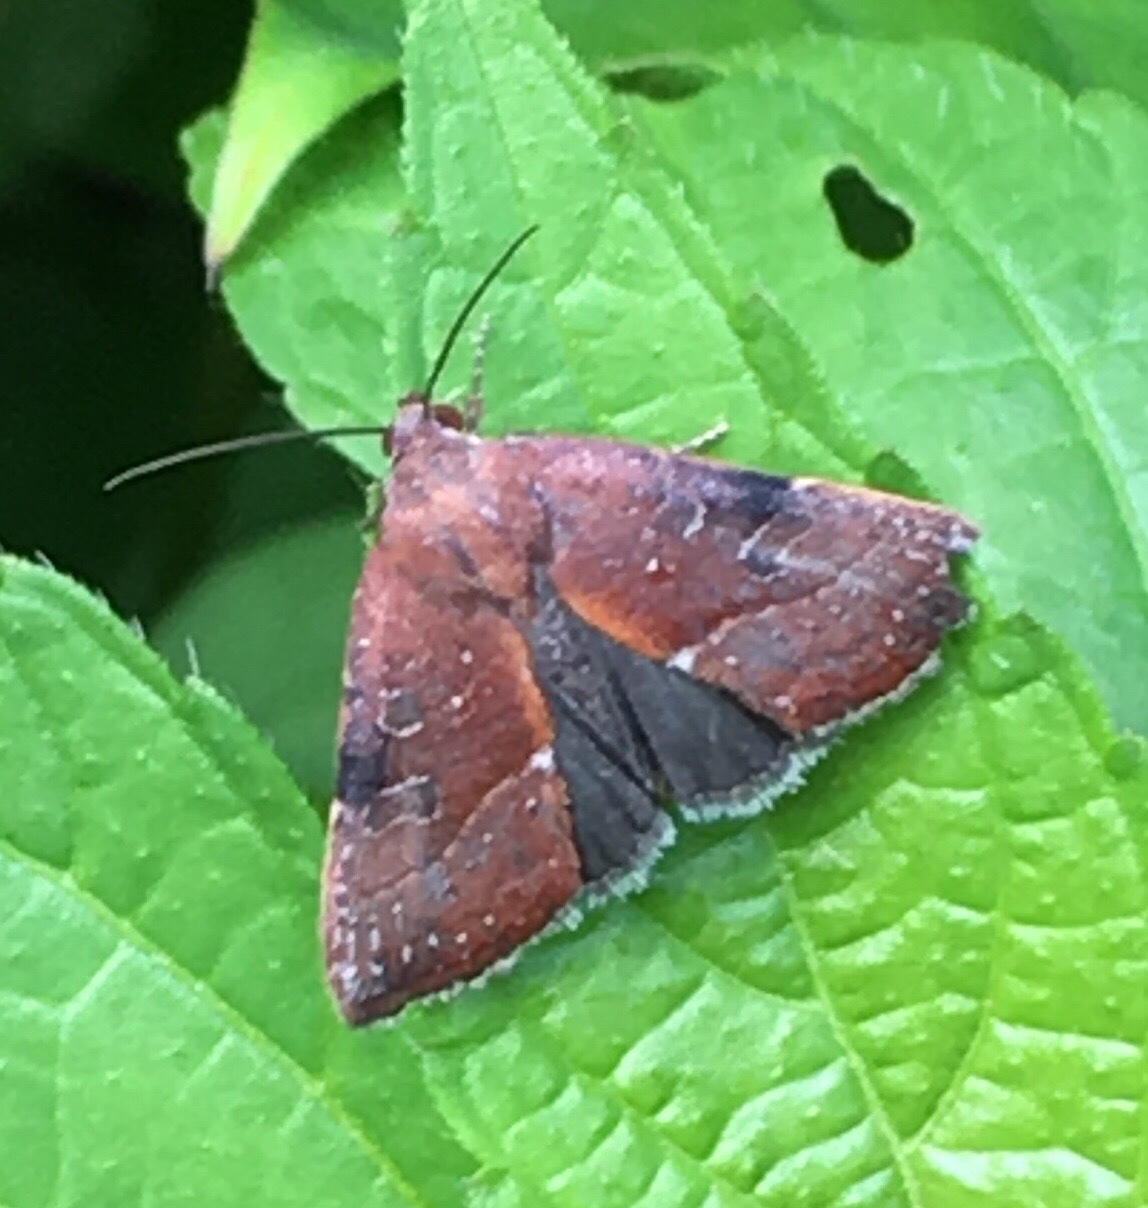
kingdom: Animalia
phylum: Arthropoda
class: Insecta
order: Lepidoptera
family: Noctuidae
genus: Galgula
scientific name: Galgula partita
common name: Wedgeling
